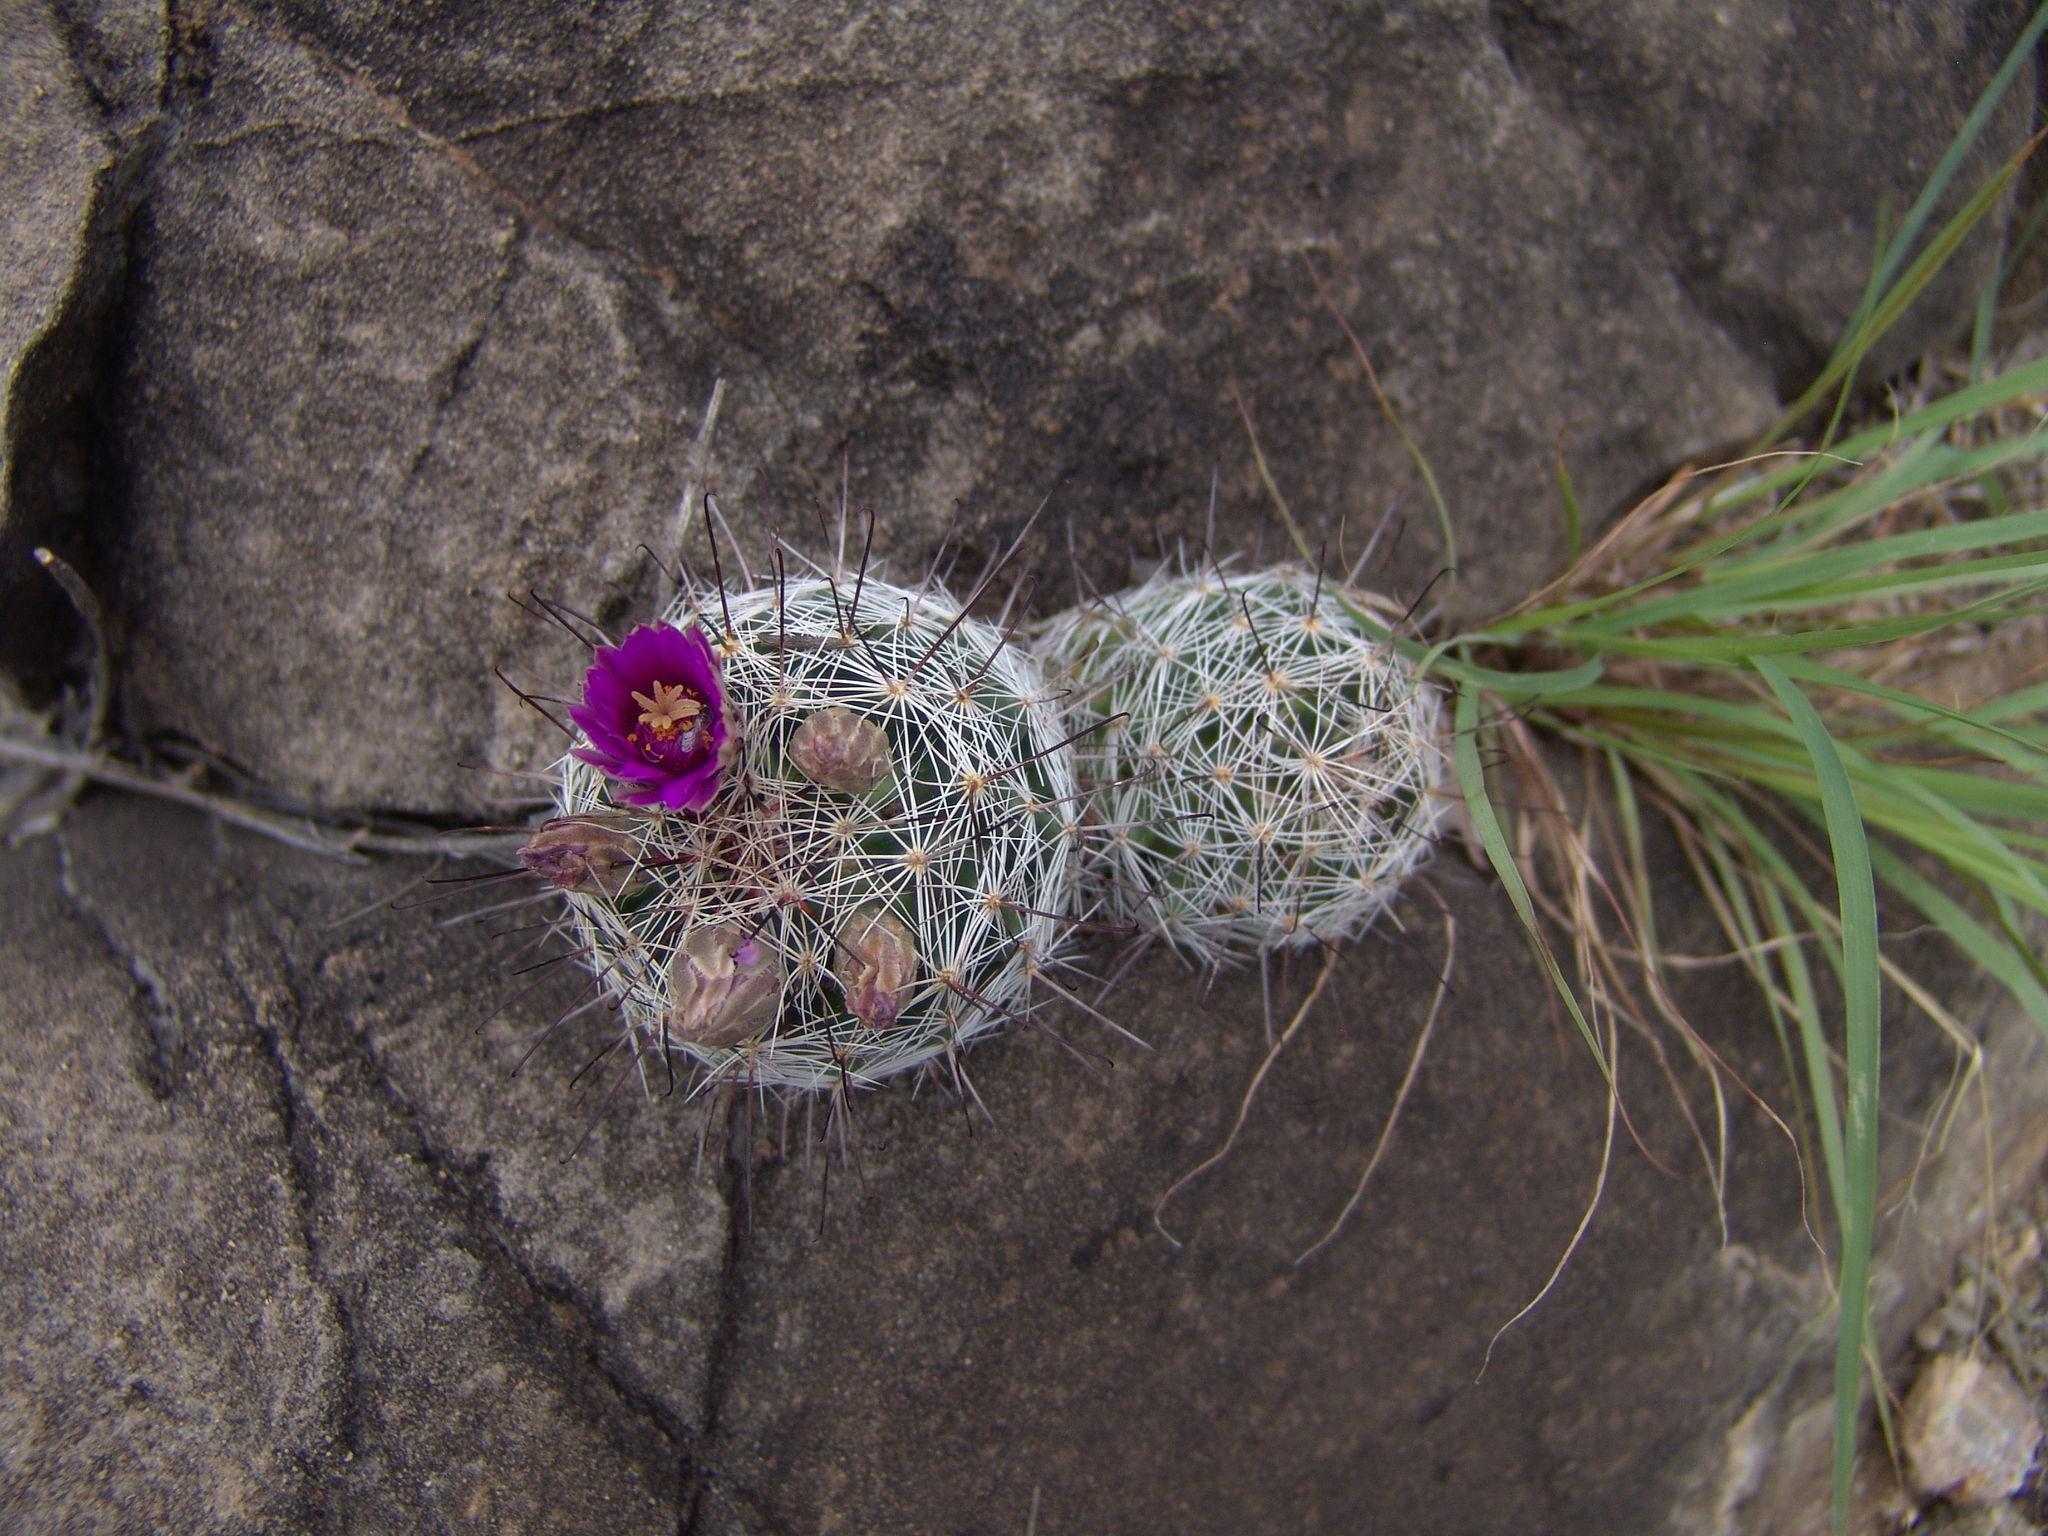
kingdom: Plantae
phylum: Tracheophyta
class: Magnoliopsida
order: Caryophyllales
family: Cactaceae
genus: Cochemiea
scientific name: Cochemiea wrightii
